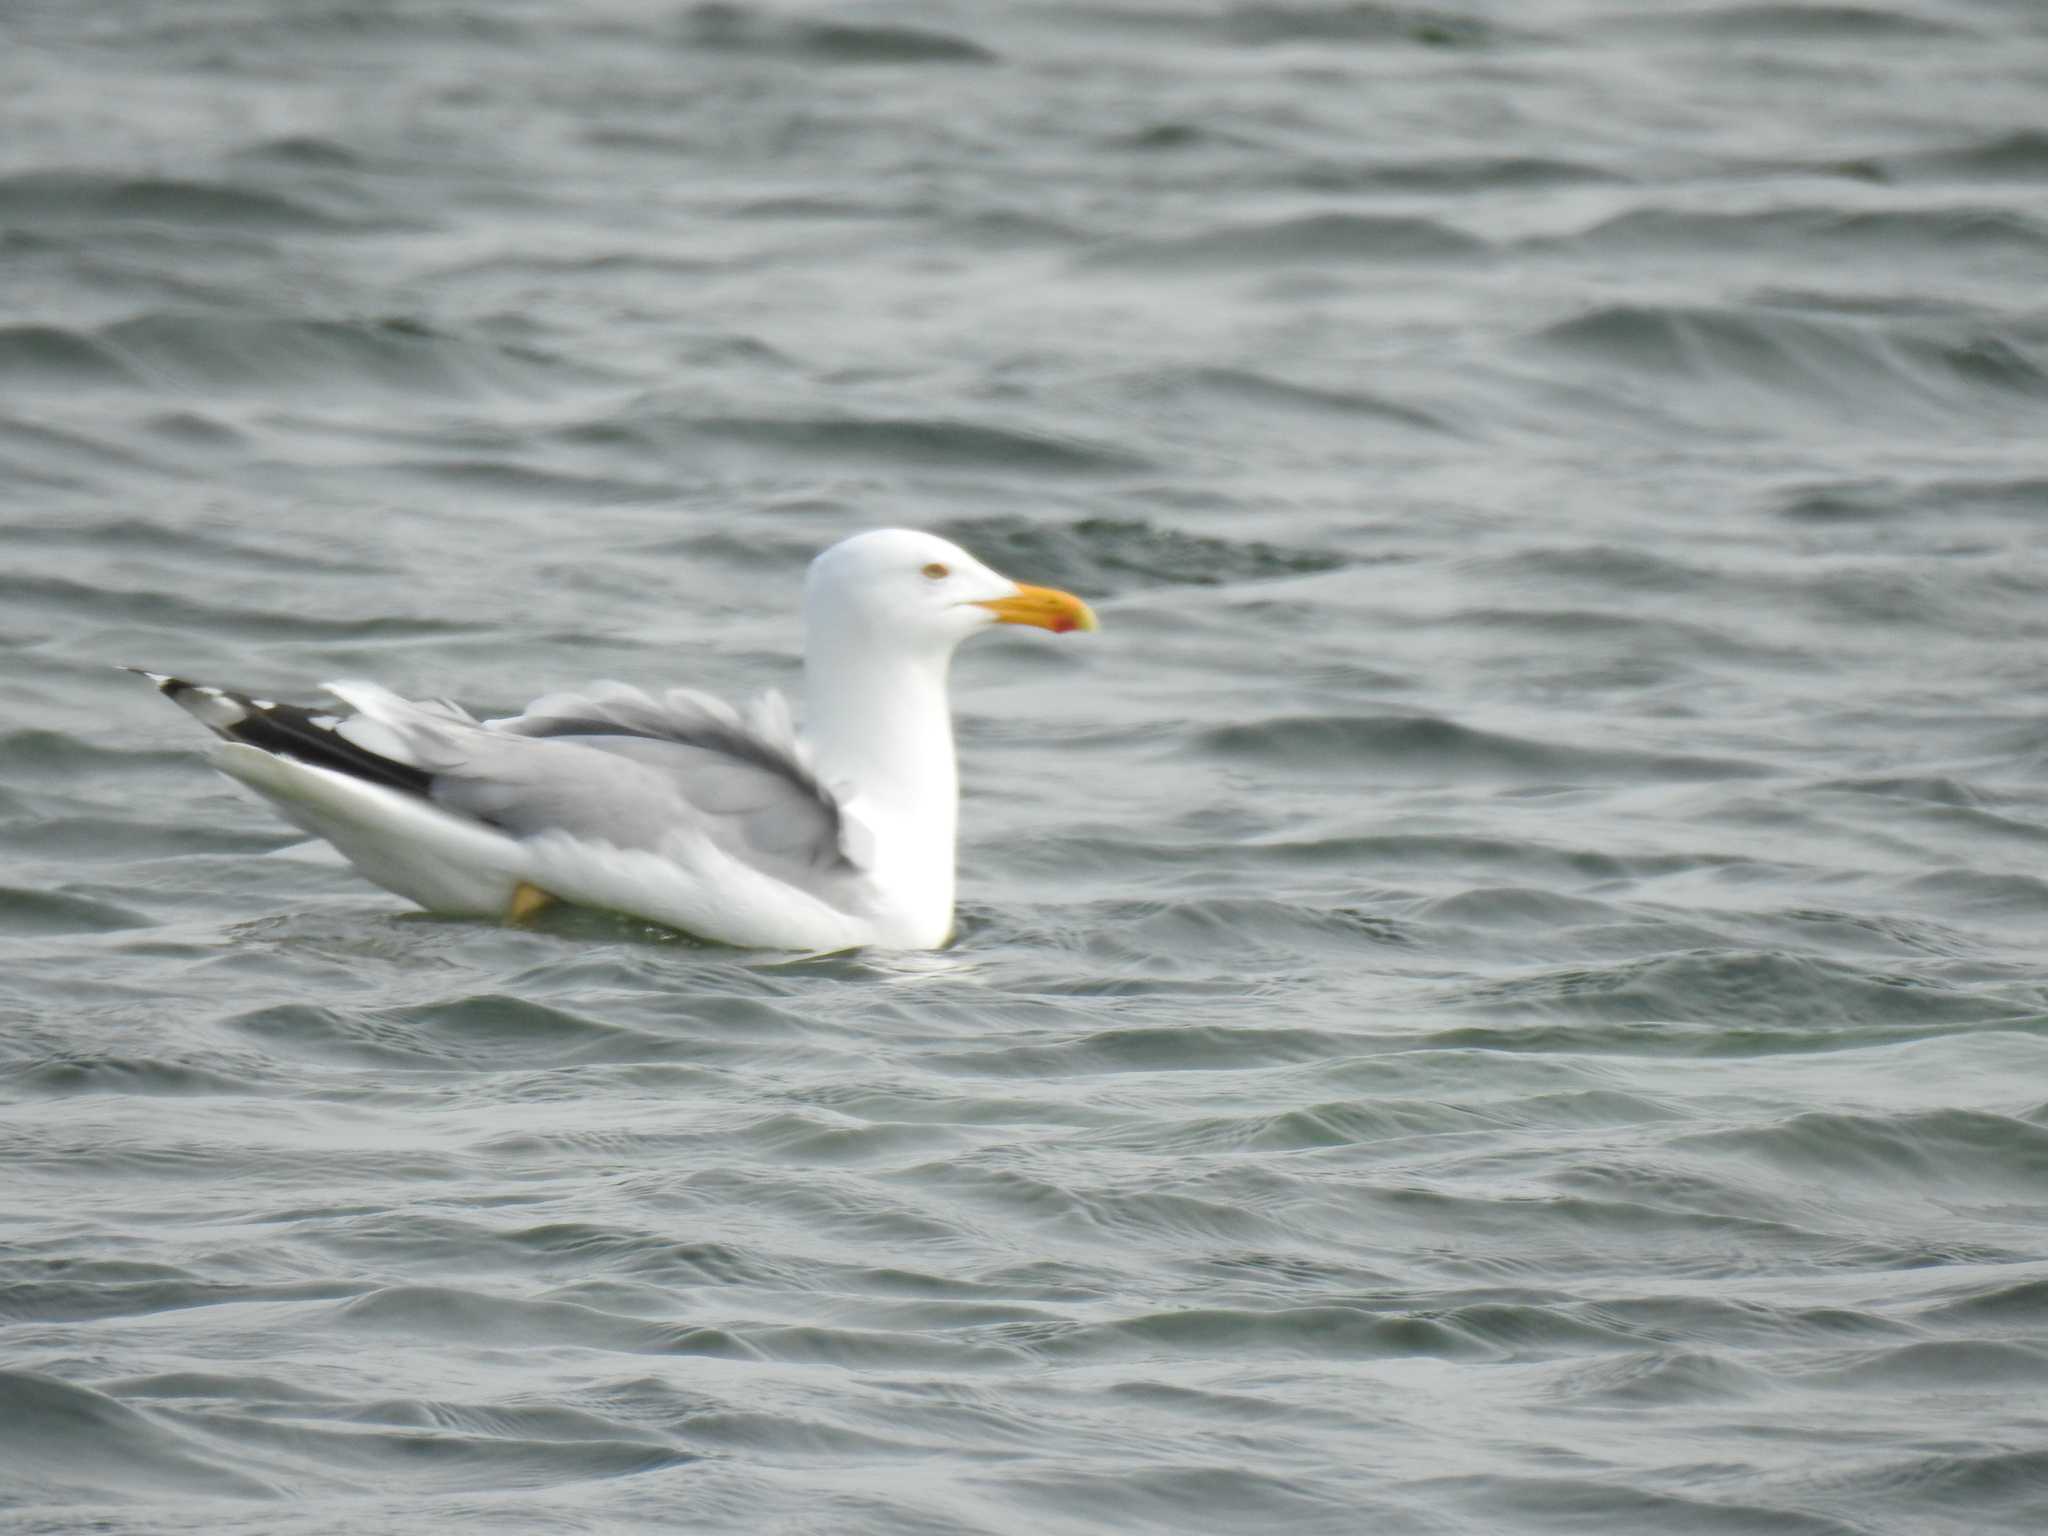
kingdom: Animalia
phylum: Chordata
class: Aves
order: Charadriiformes
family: Laridae
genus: Larus
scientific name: Larus argentatus
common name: Herring gull
